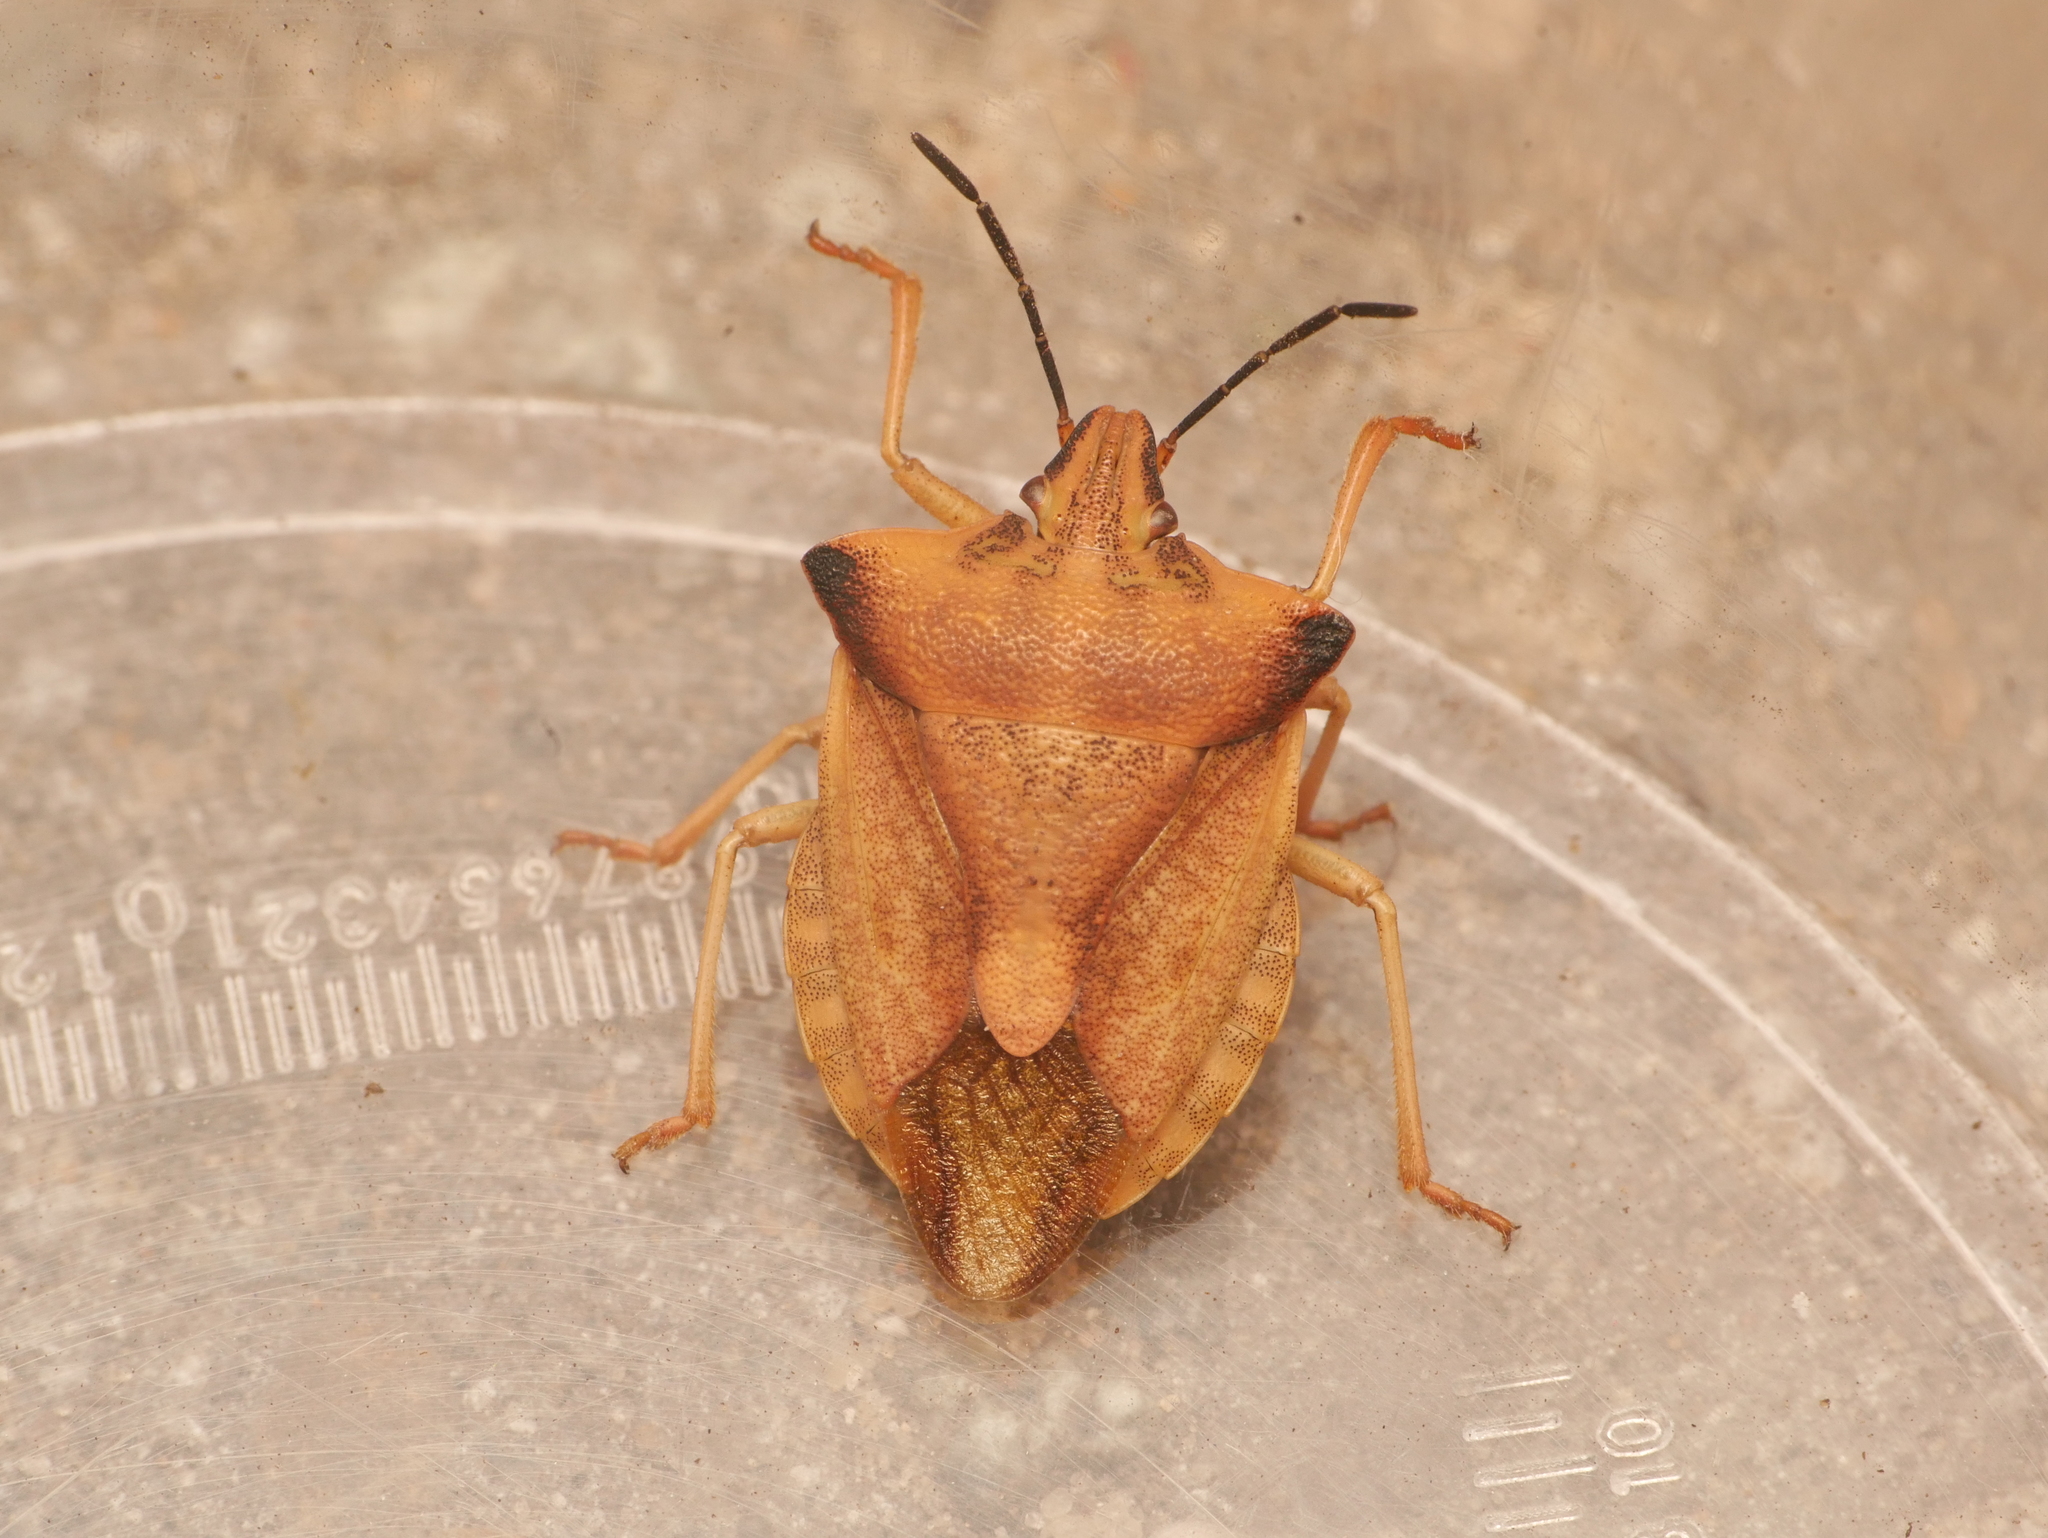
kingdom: Animalia
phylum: Arthropoda
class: Insecta
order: Hemiptera
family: Pentatomidae
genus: Carpocoris
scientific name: Carpocoris fuscispinus
